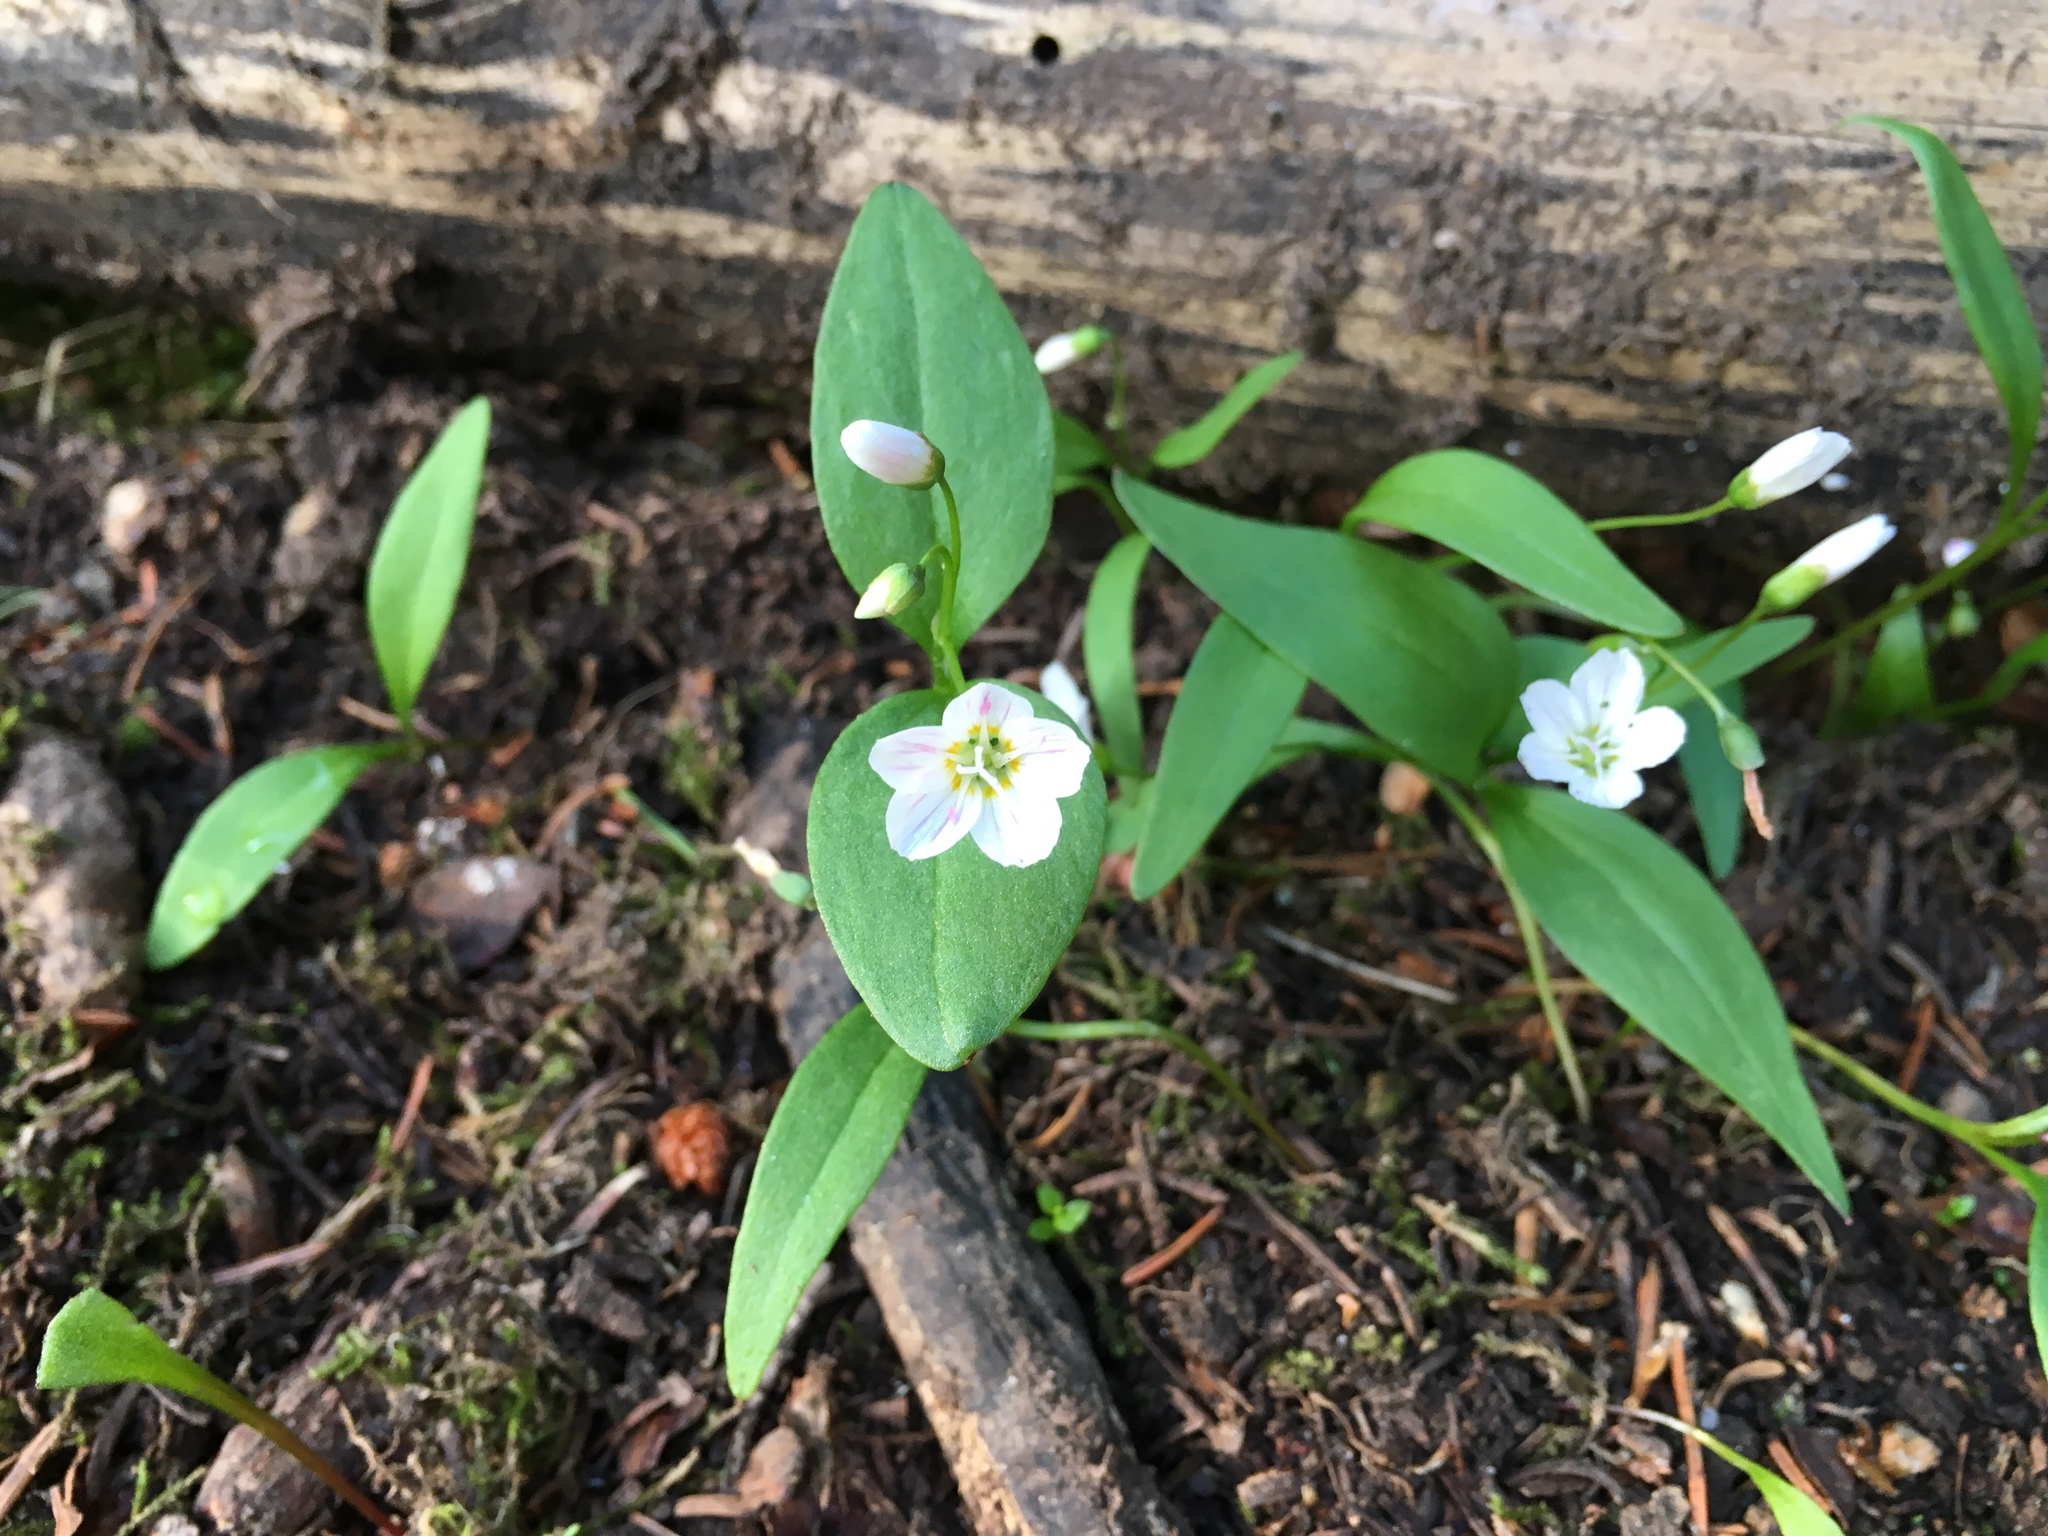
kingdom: Plantae
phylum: Tracheophyta
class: Magnoliopsida
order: Caryophyllales
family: Montiaceae
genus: Claytonia
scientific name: Claytonia lanceolata
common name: Western spring-beauty
